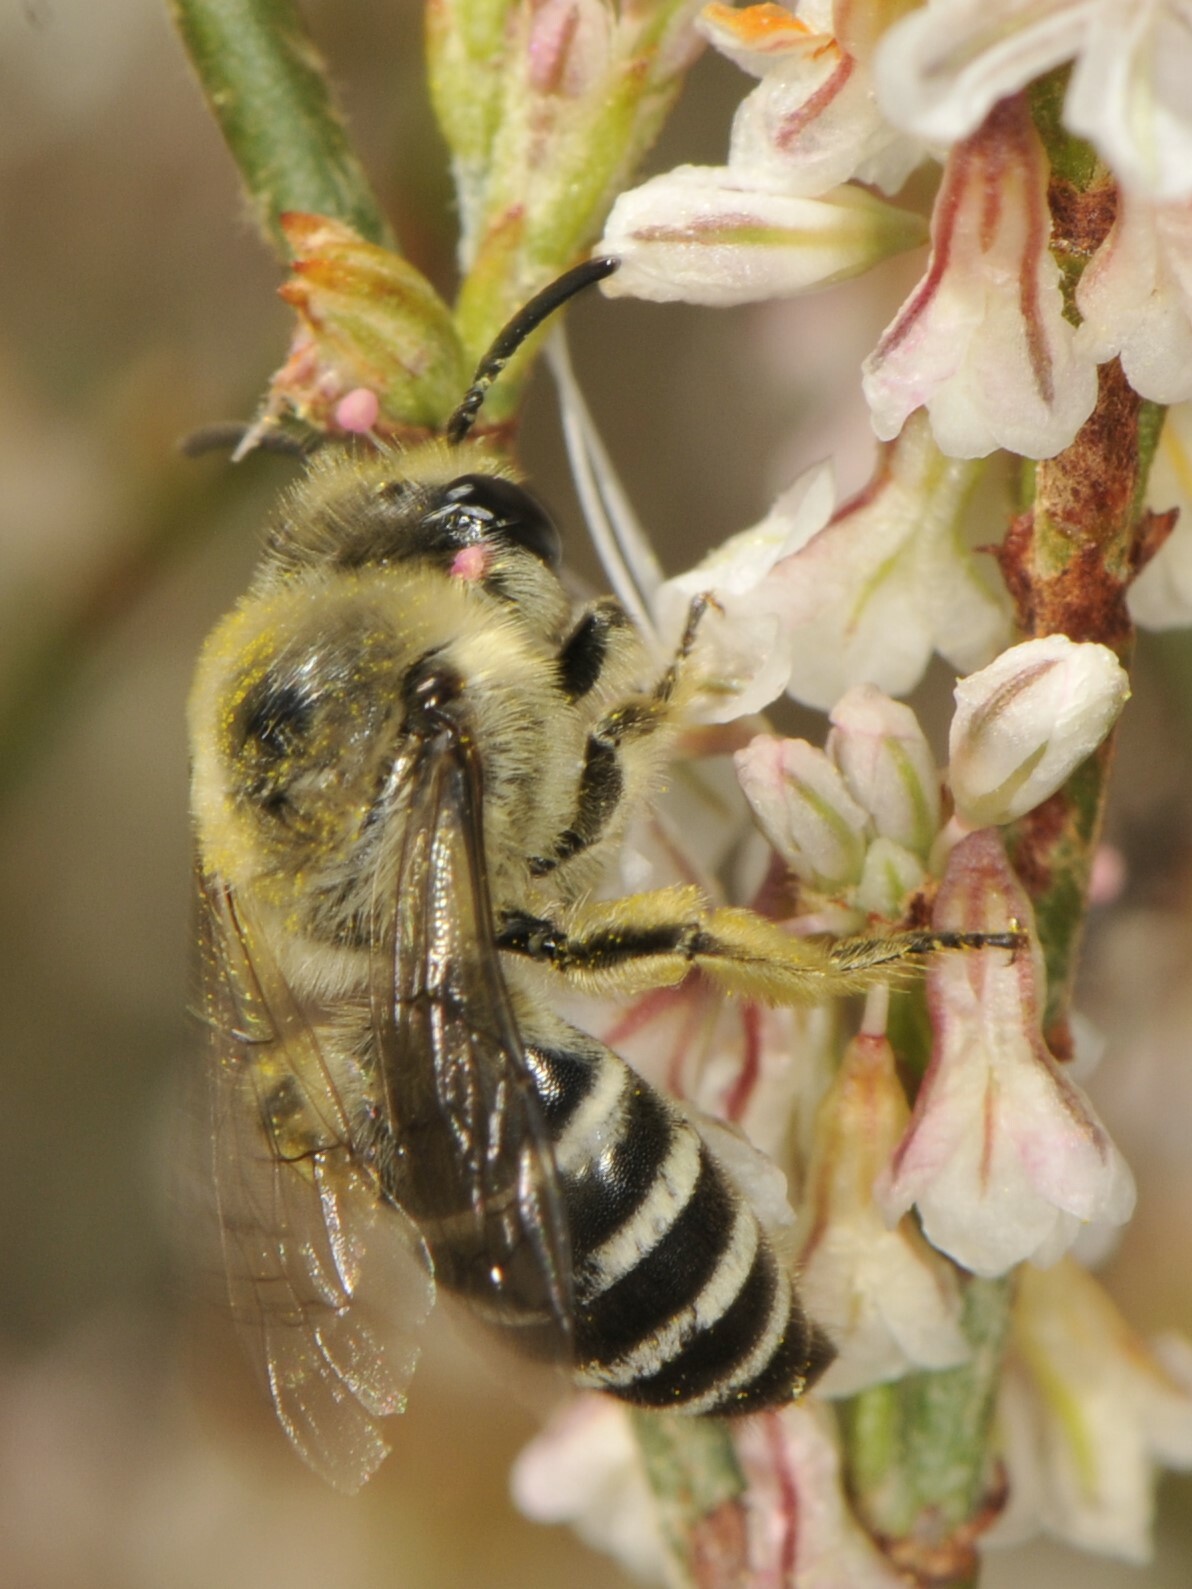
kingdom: Animalia
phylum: Arthropoda
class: Insecta
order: Hymenoptera
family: Colletidae
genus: Colletes
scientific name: Colletes
